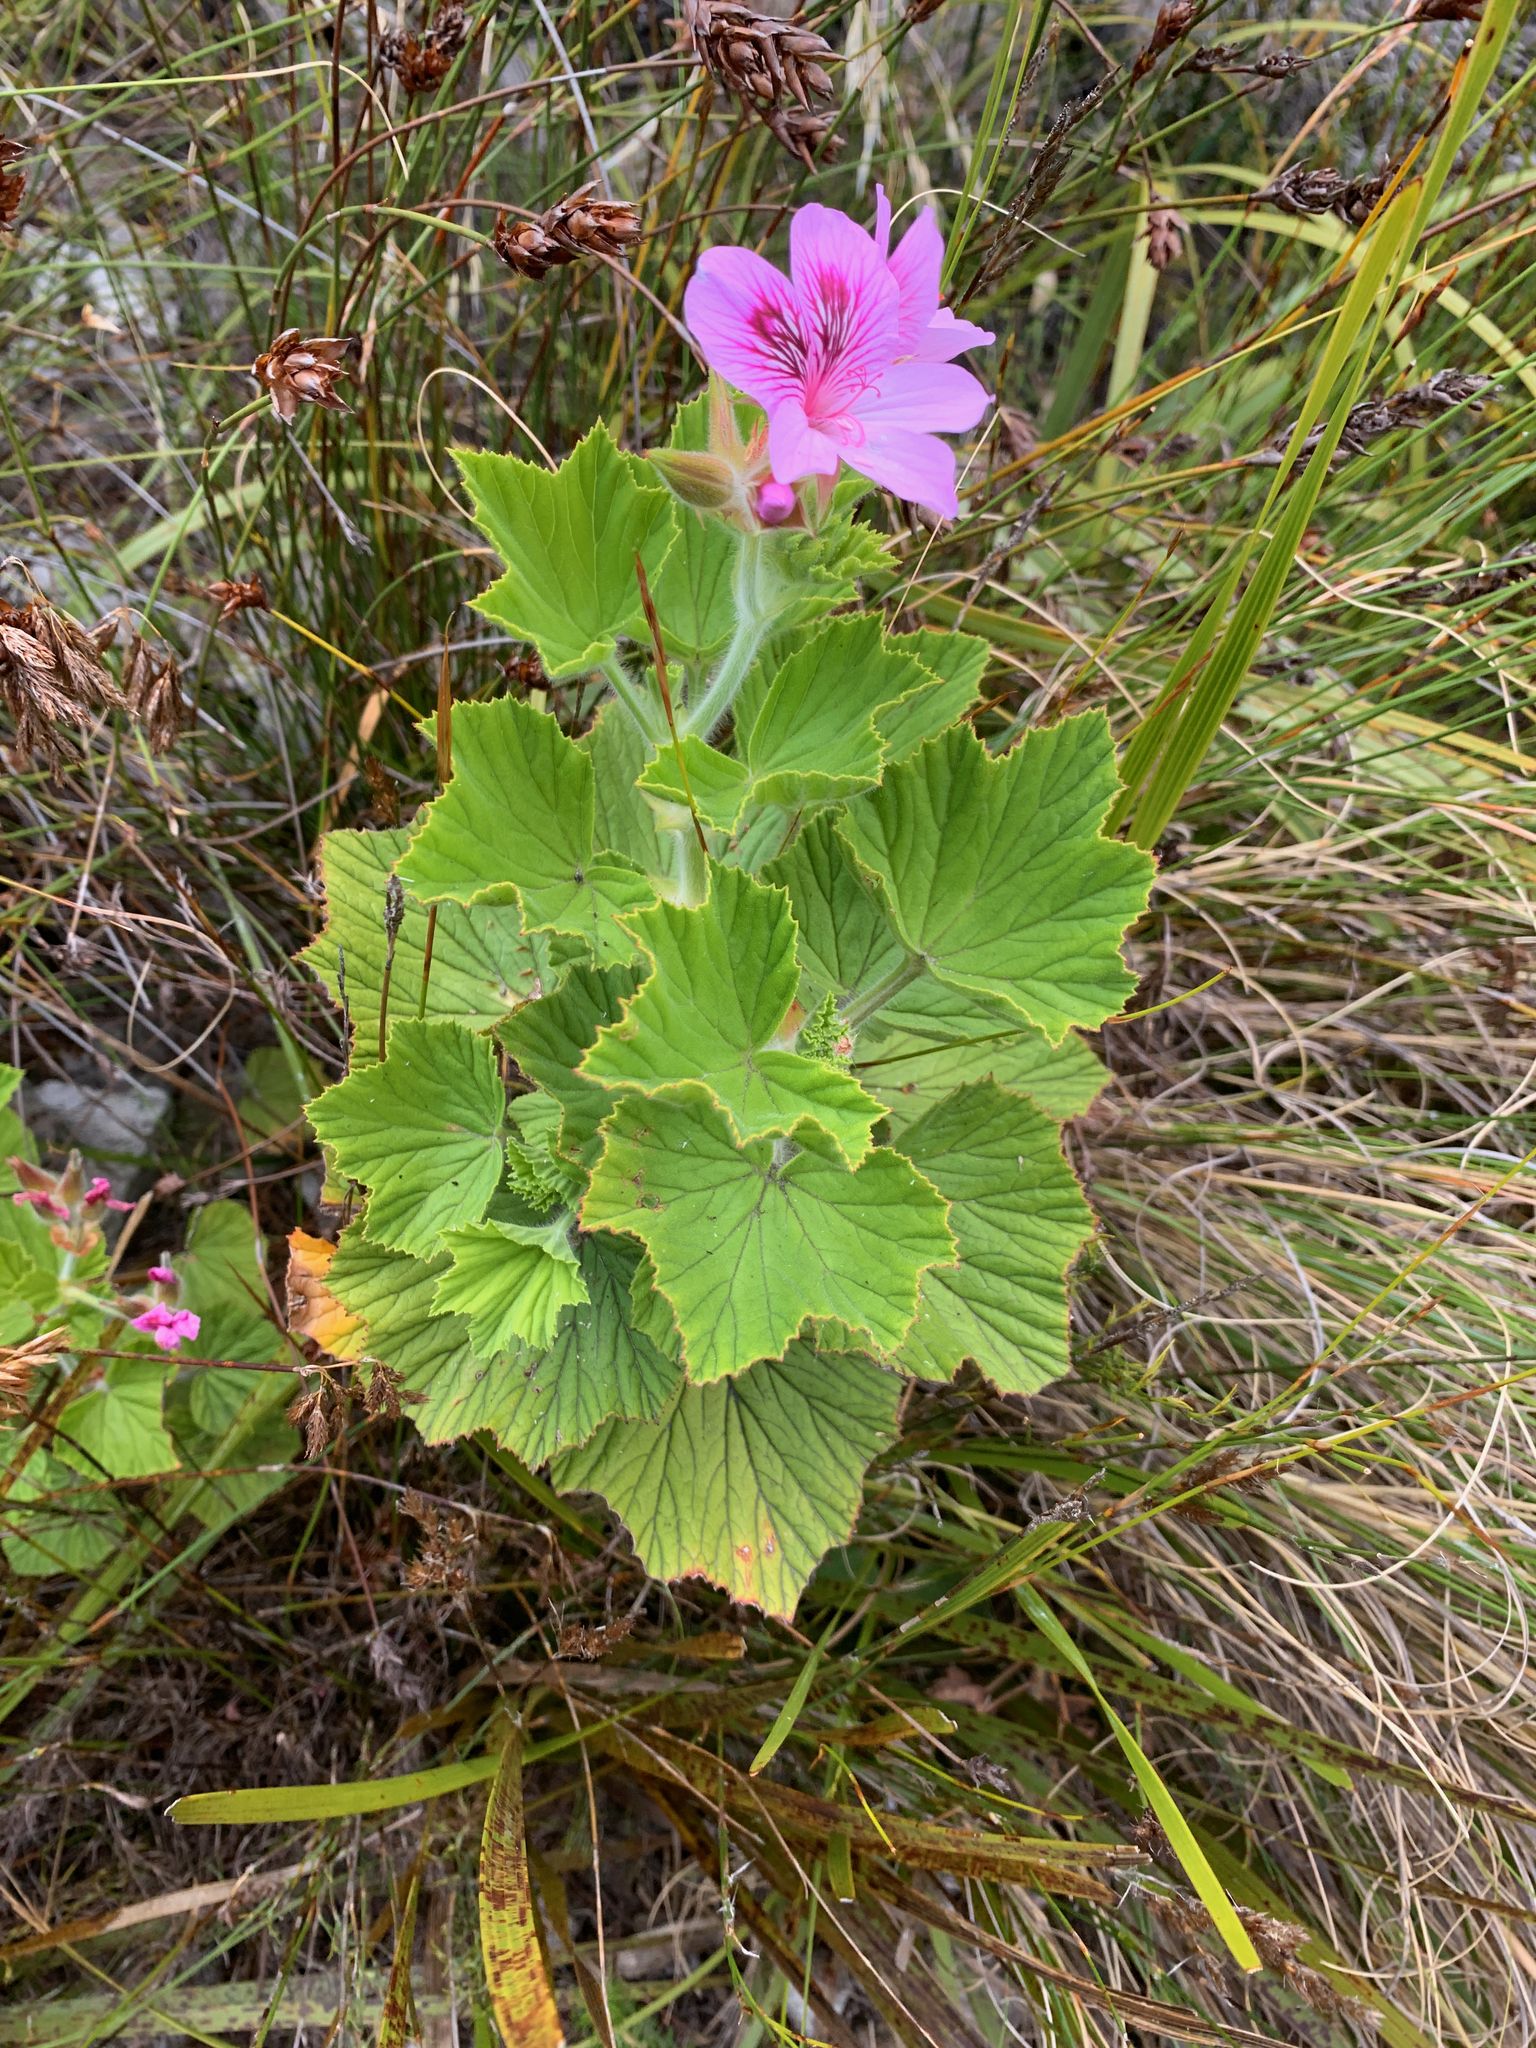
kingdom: Plantae
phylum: Tracheophyta
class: Magnoliopsida
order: Geraniales
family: Geraniaceae
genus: Pelargonium
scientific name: Pelargonium cucullatum
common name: Tree pelargonium
